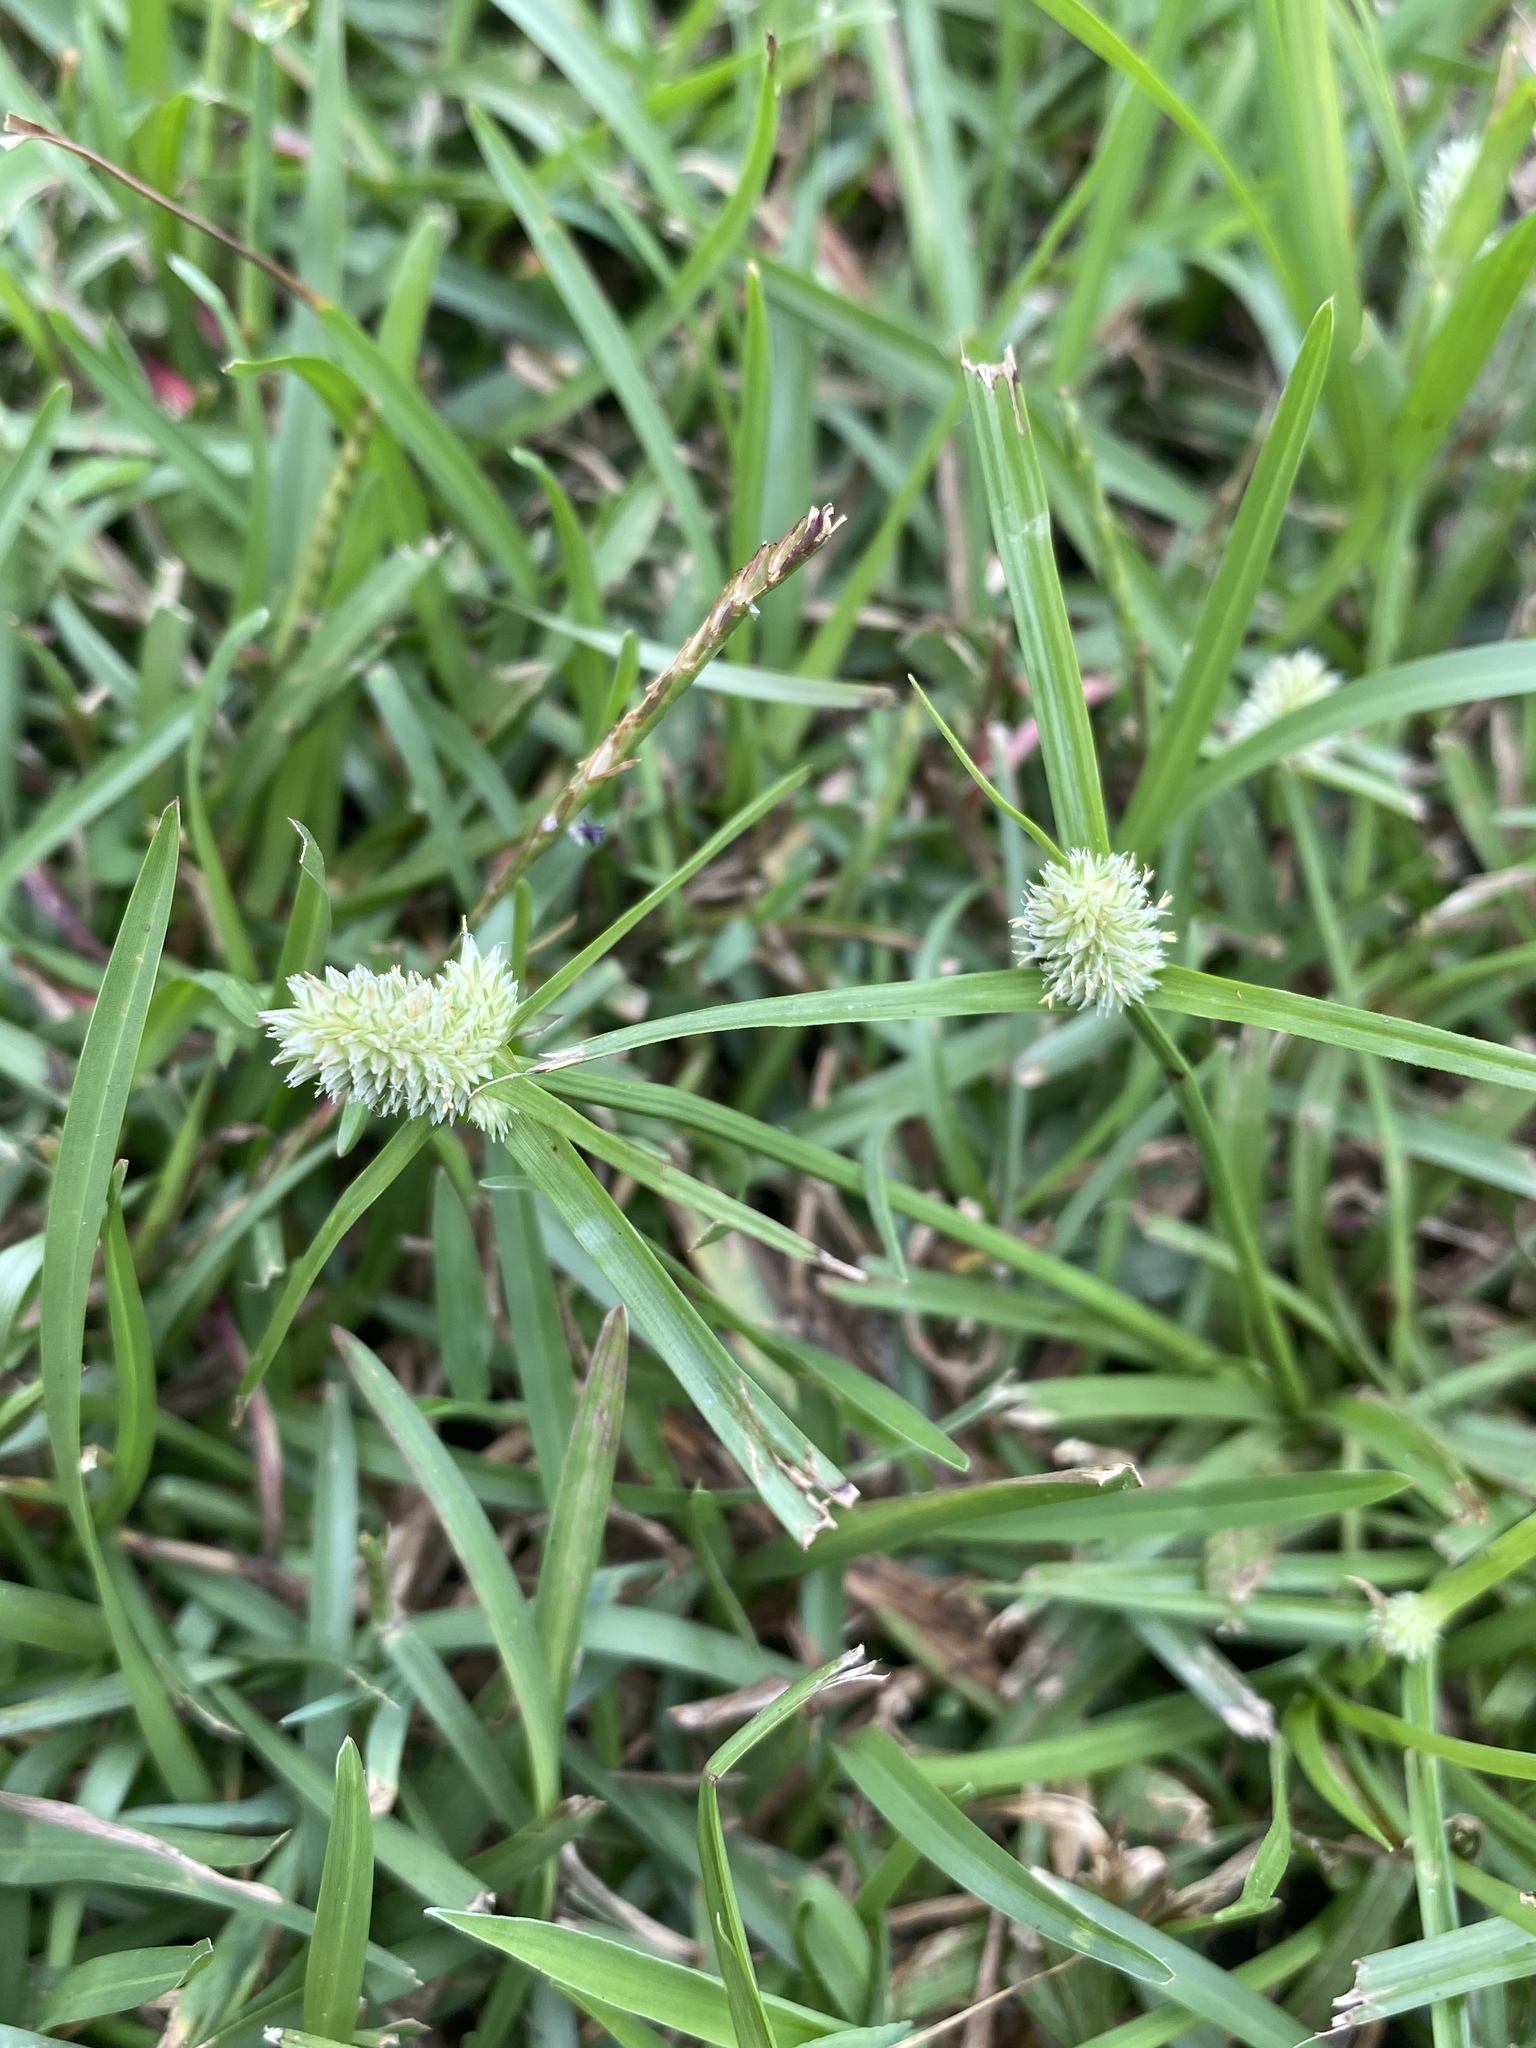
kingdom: Plantae
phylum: Tracheophyta
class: Liliopsida
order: Poales
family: Cyperaceae
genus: Cyperus
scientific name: Cyperus sesquiflorus
